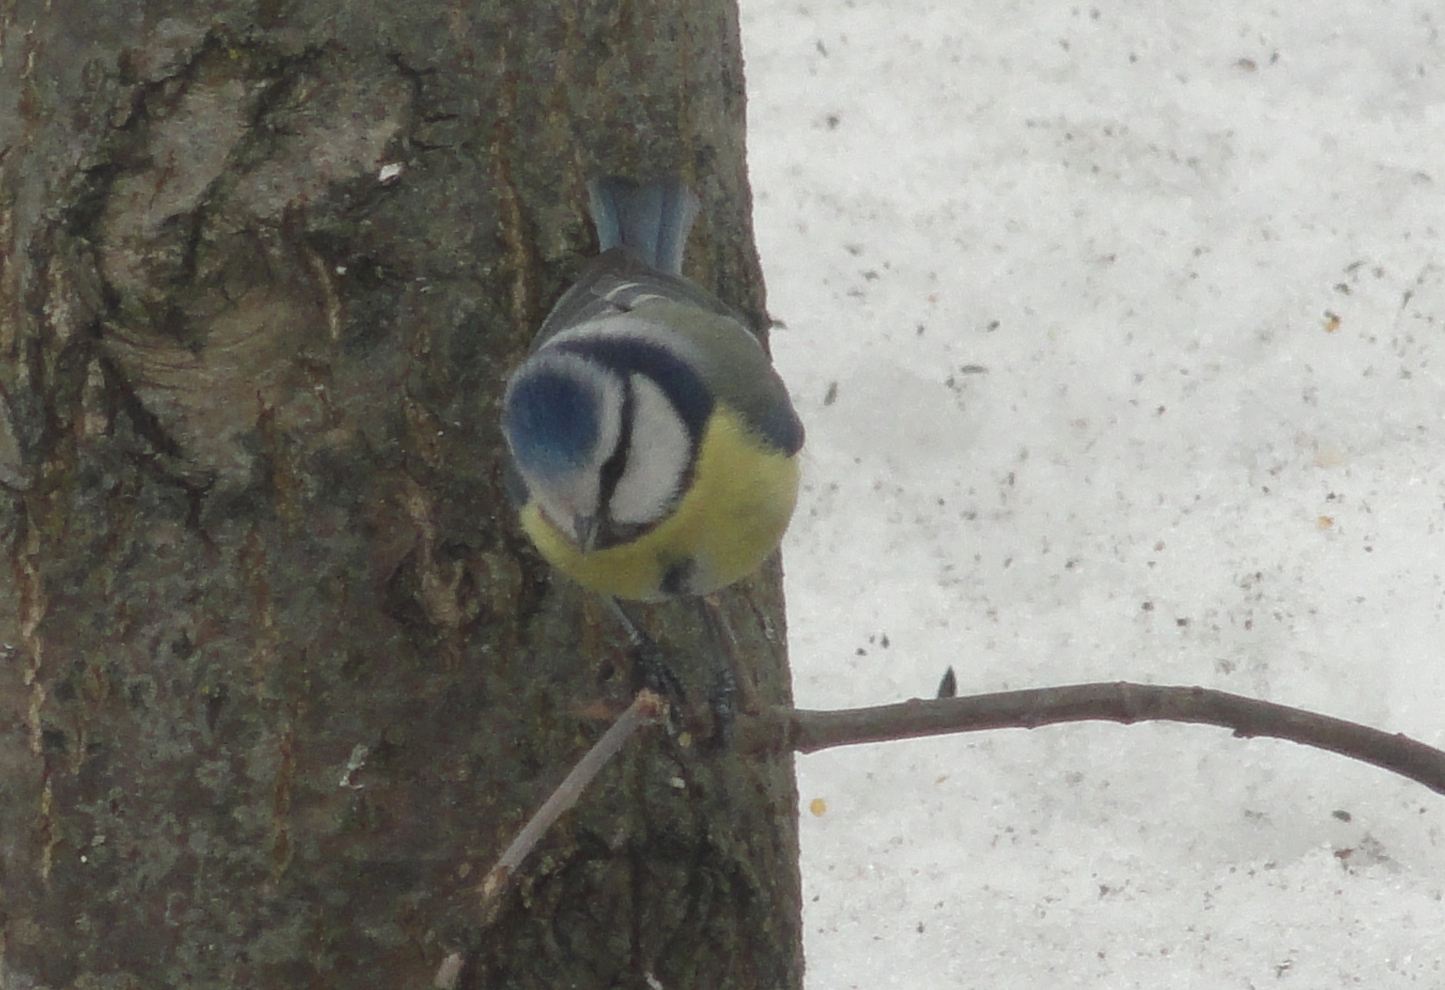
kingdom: Animalia
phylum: Chordata
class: Aves
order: Passeriformes
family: Paridae
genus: Cyanistes
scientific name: Cyanistes caeruleus
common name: Eurasian blue tit
